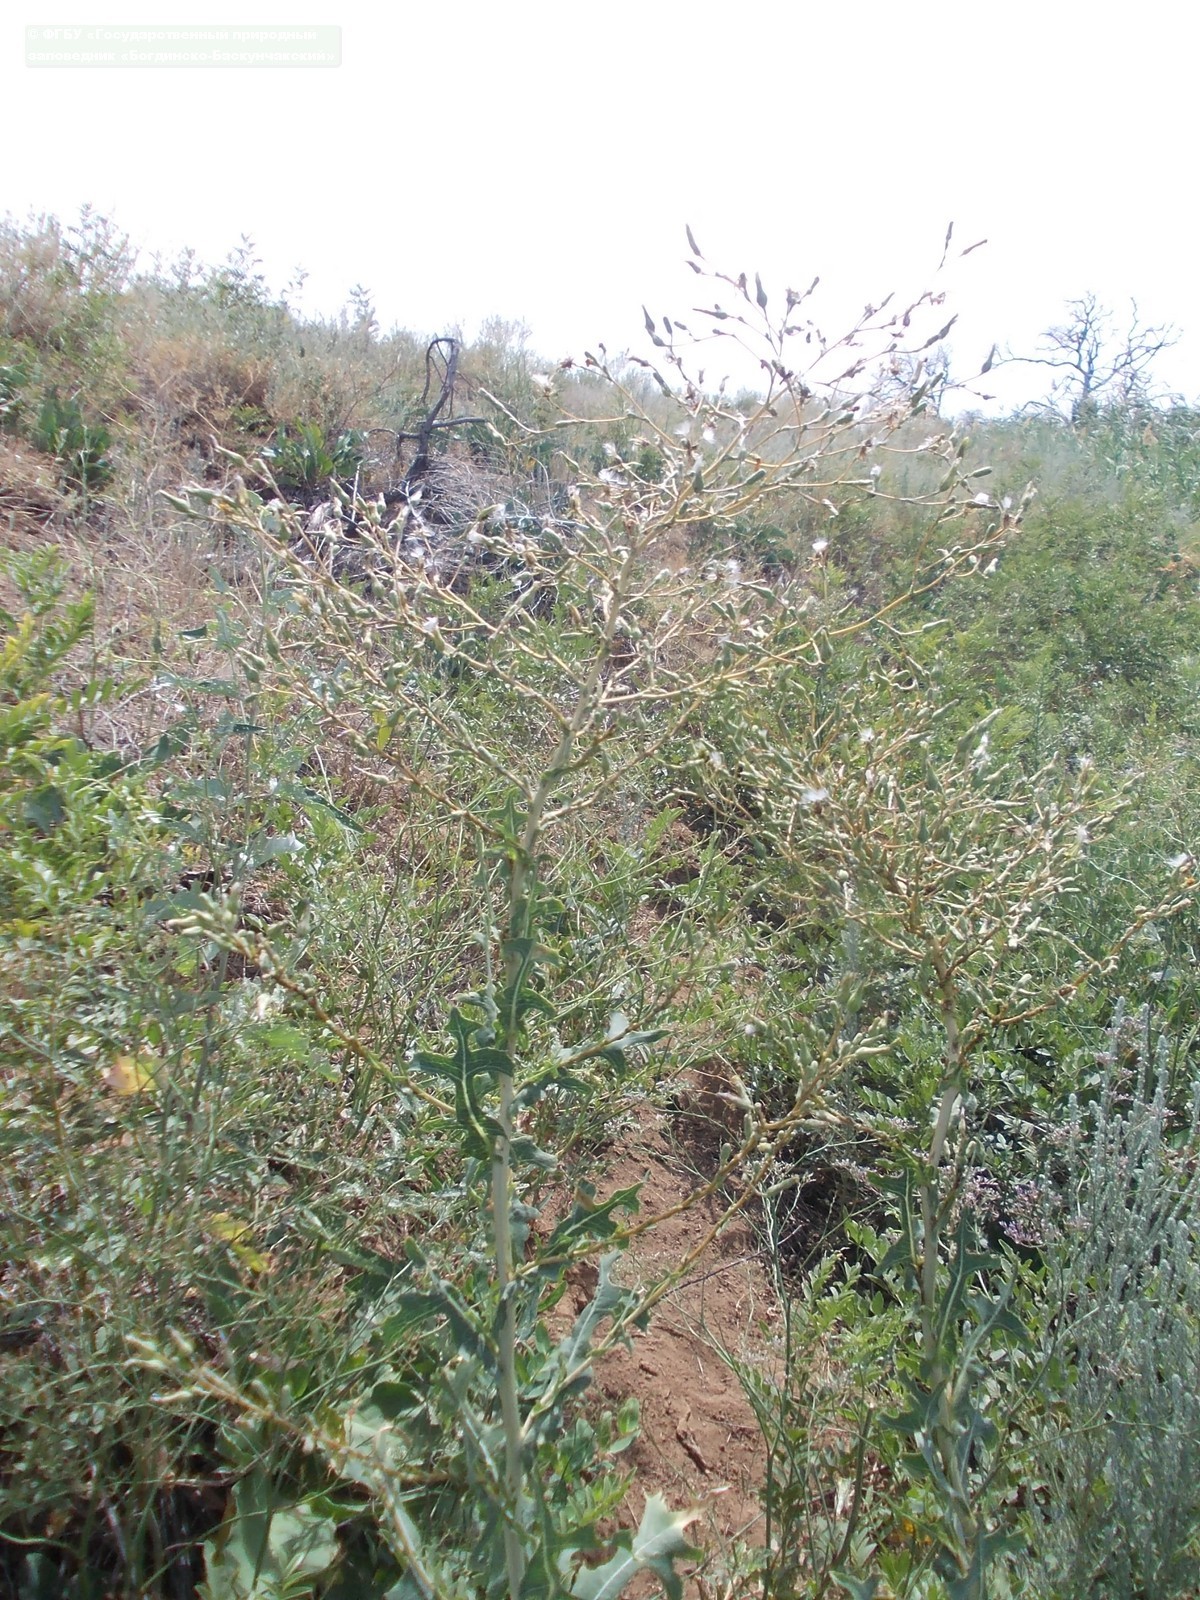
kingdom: Plantae
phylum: Tracheophyta
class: Magnoliopsida
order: Asterales
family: Asteraceae
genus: Lactuca
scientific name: Lactuca serriola
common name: Prickly lettuce
